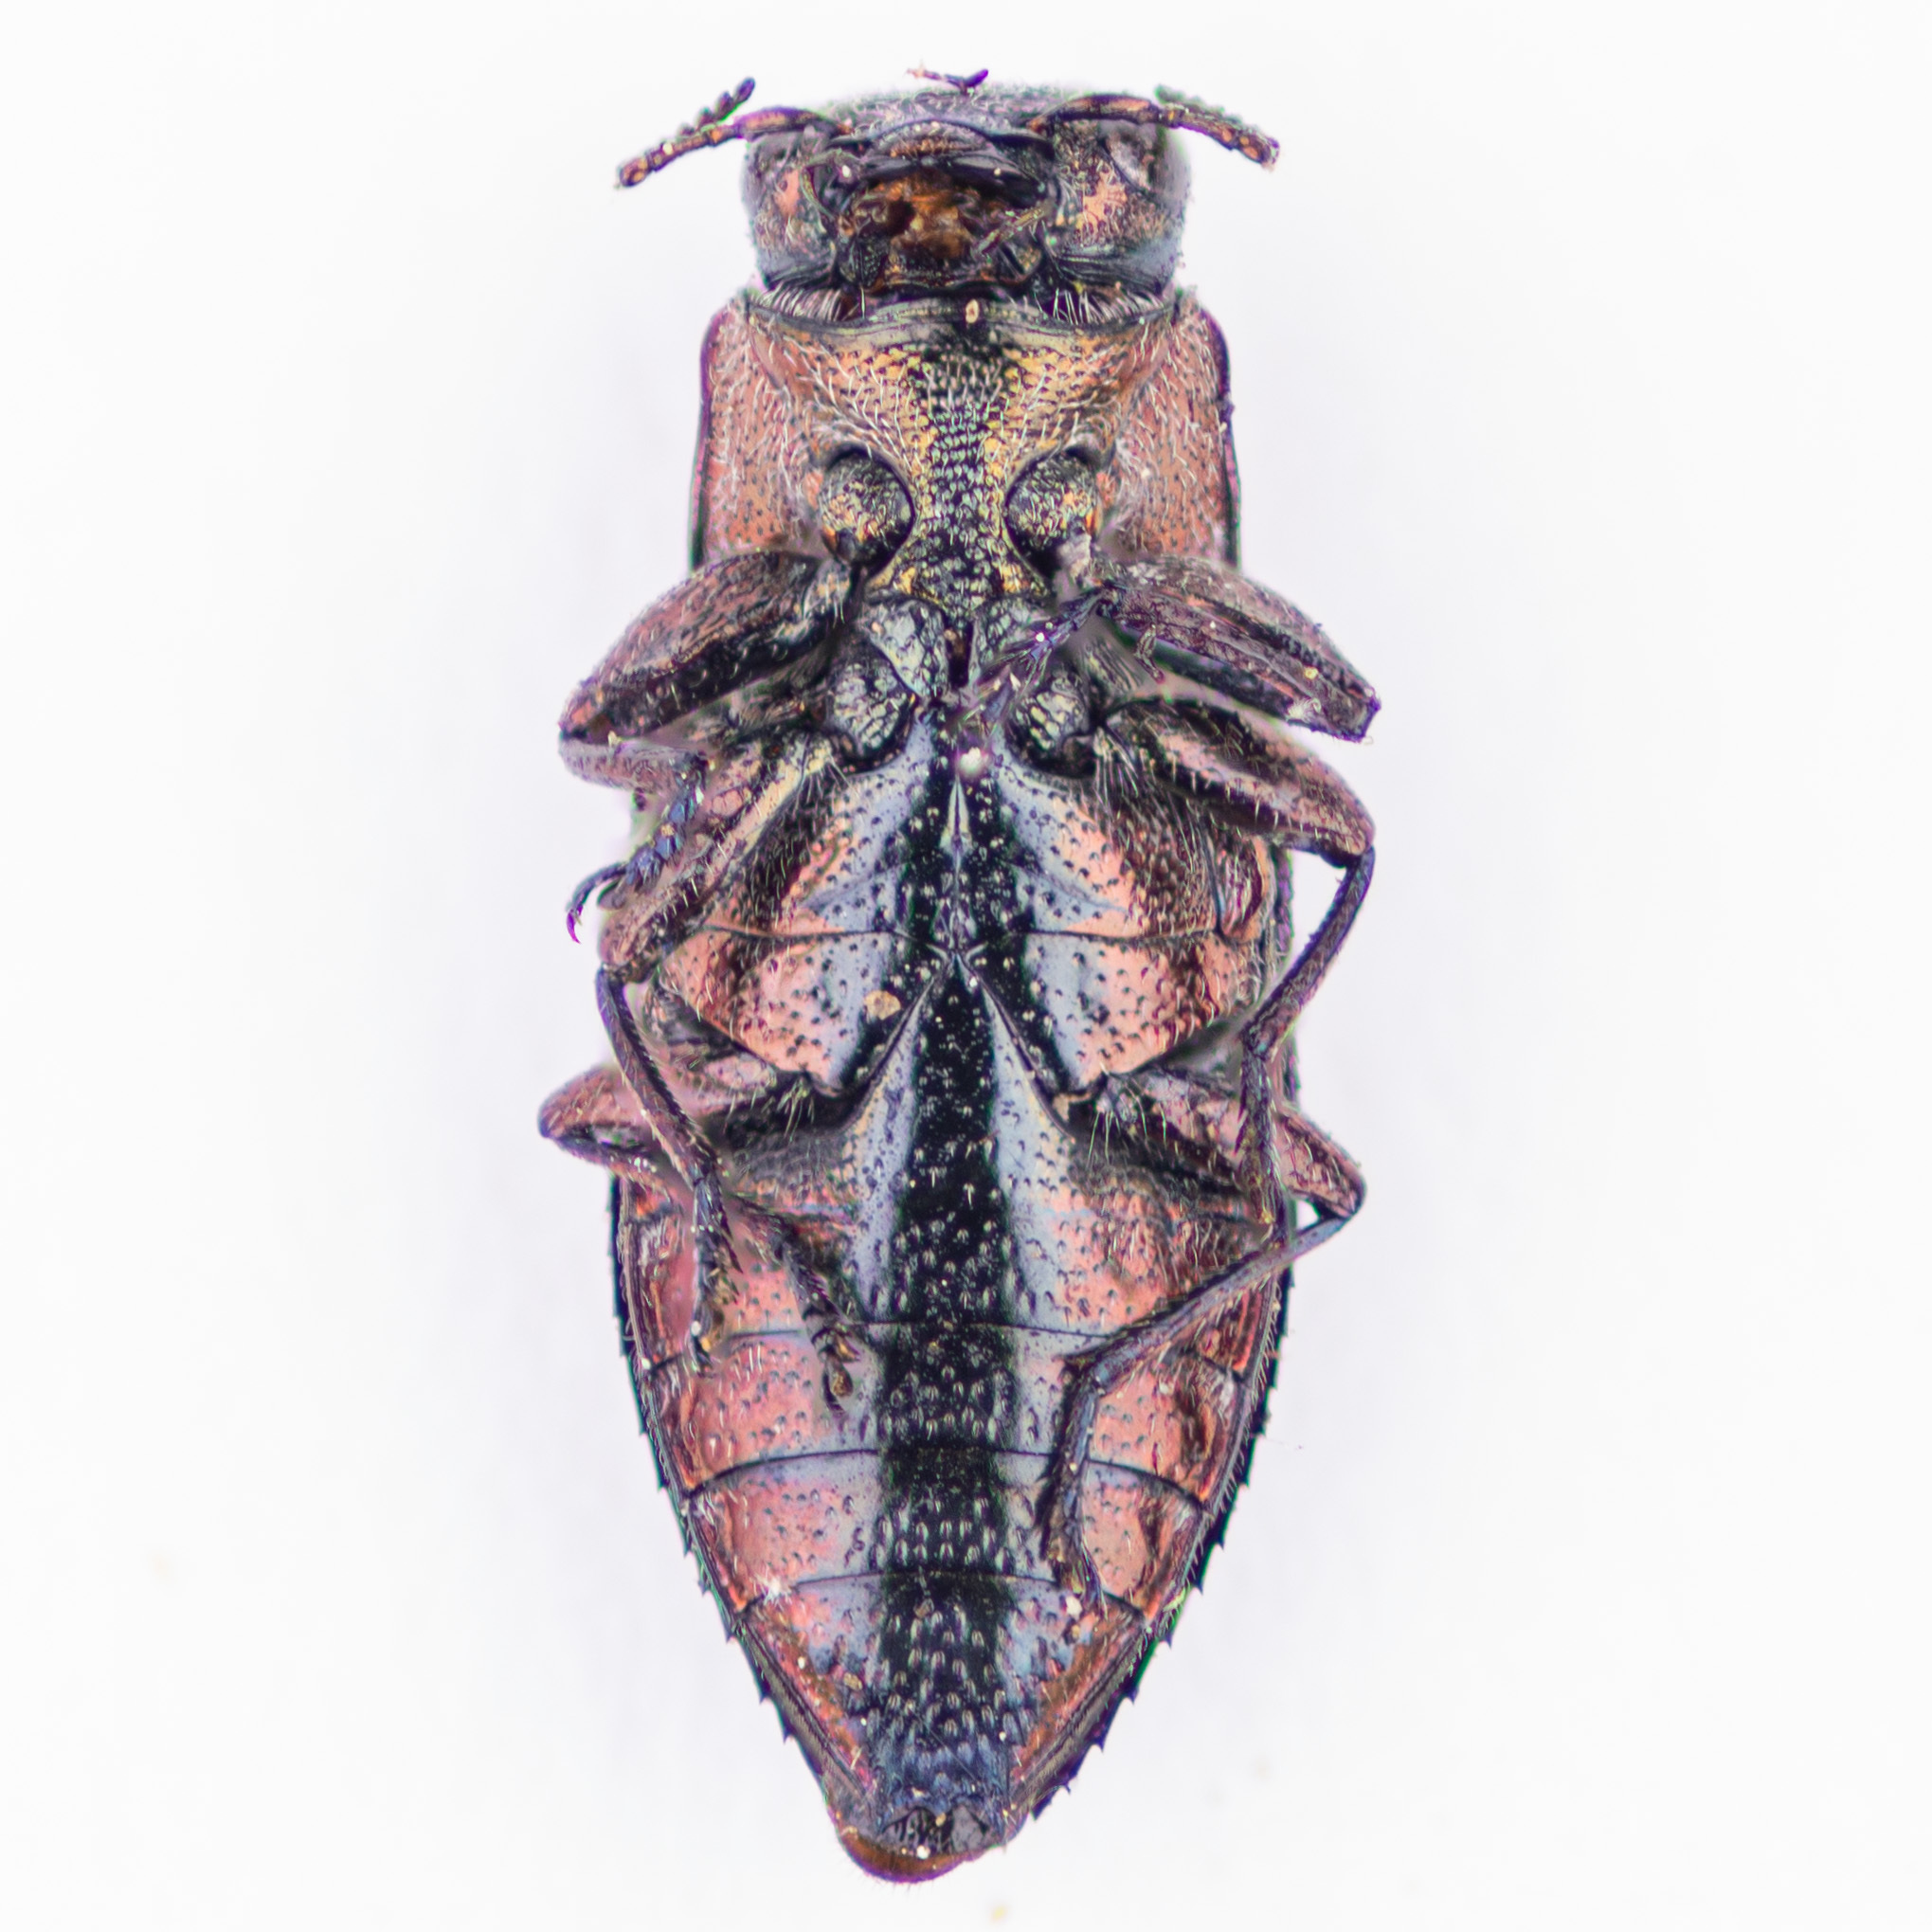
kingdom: Animalia
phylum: Arthropoda
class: Insecta
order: Coleoptera
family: Buprestidae
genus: Chrysobothris
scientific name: Chrysobothris analis
